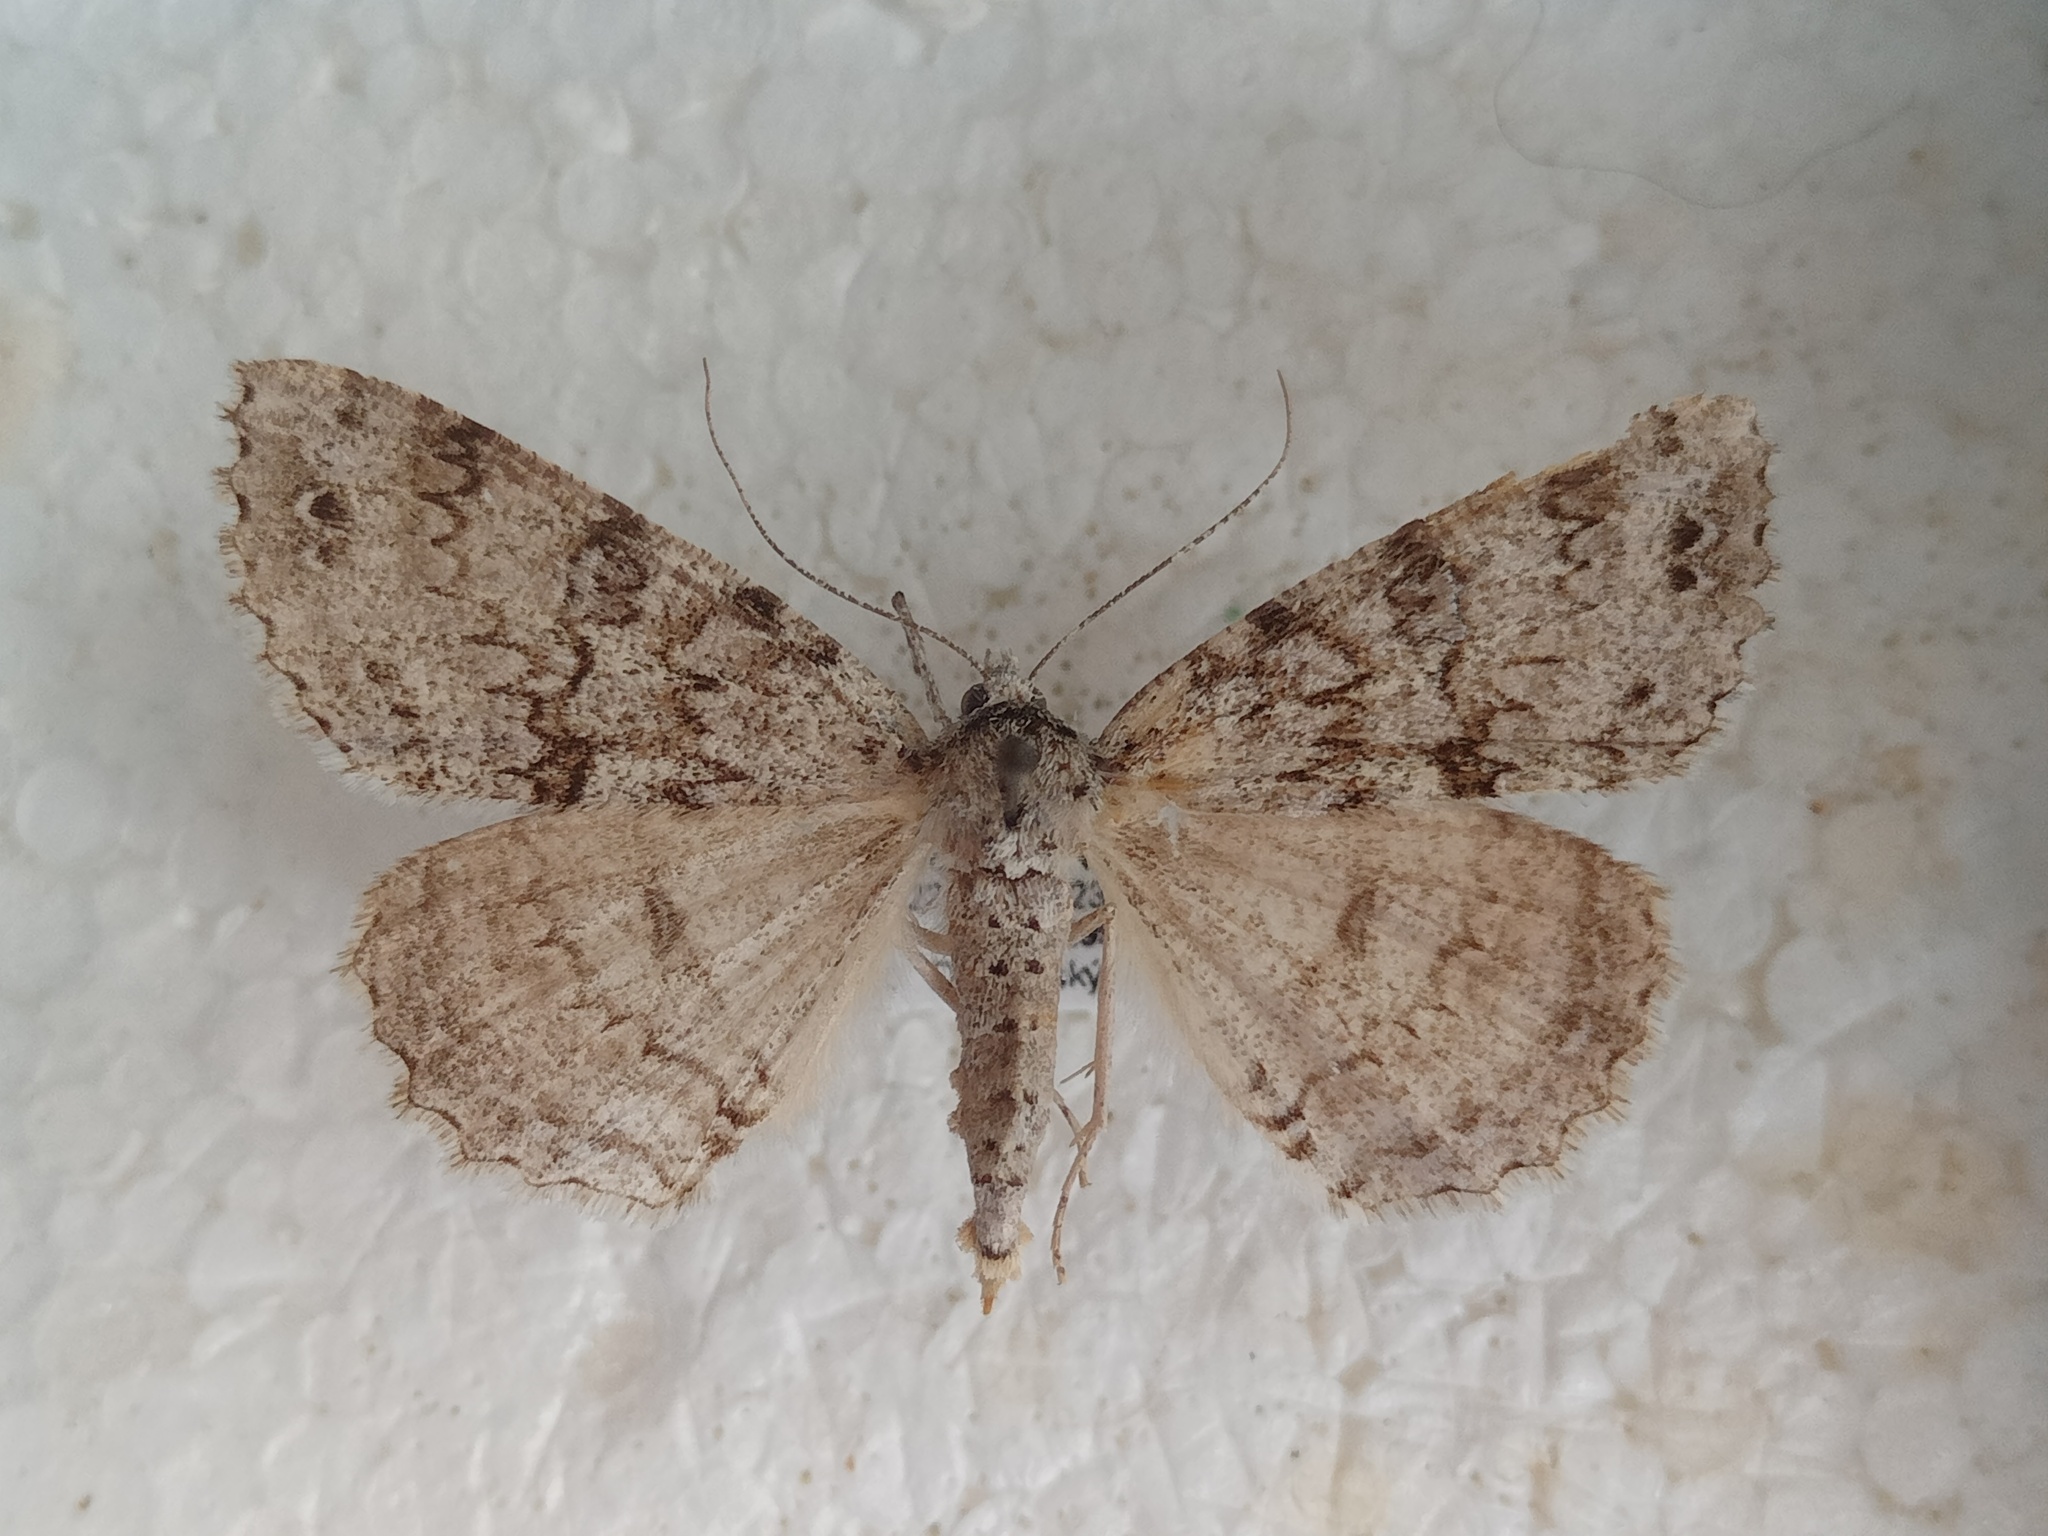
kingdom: Animalia
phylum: Arthropoda
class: Insecta
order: Lepidoptera
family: Geometridae
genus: Ascotis
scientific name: Ascotis fortunata
